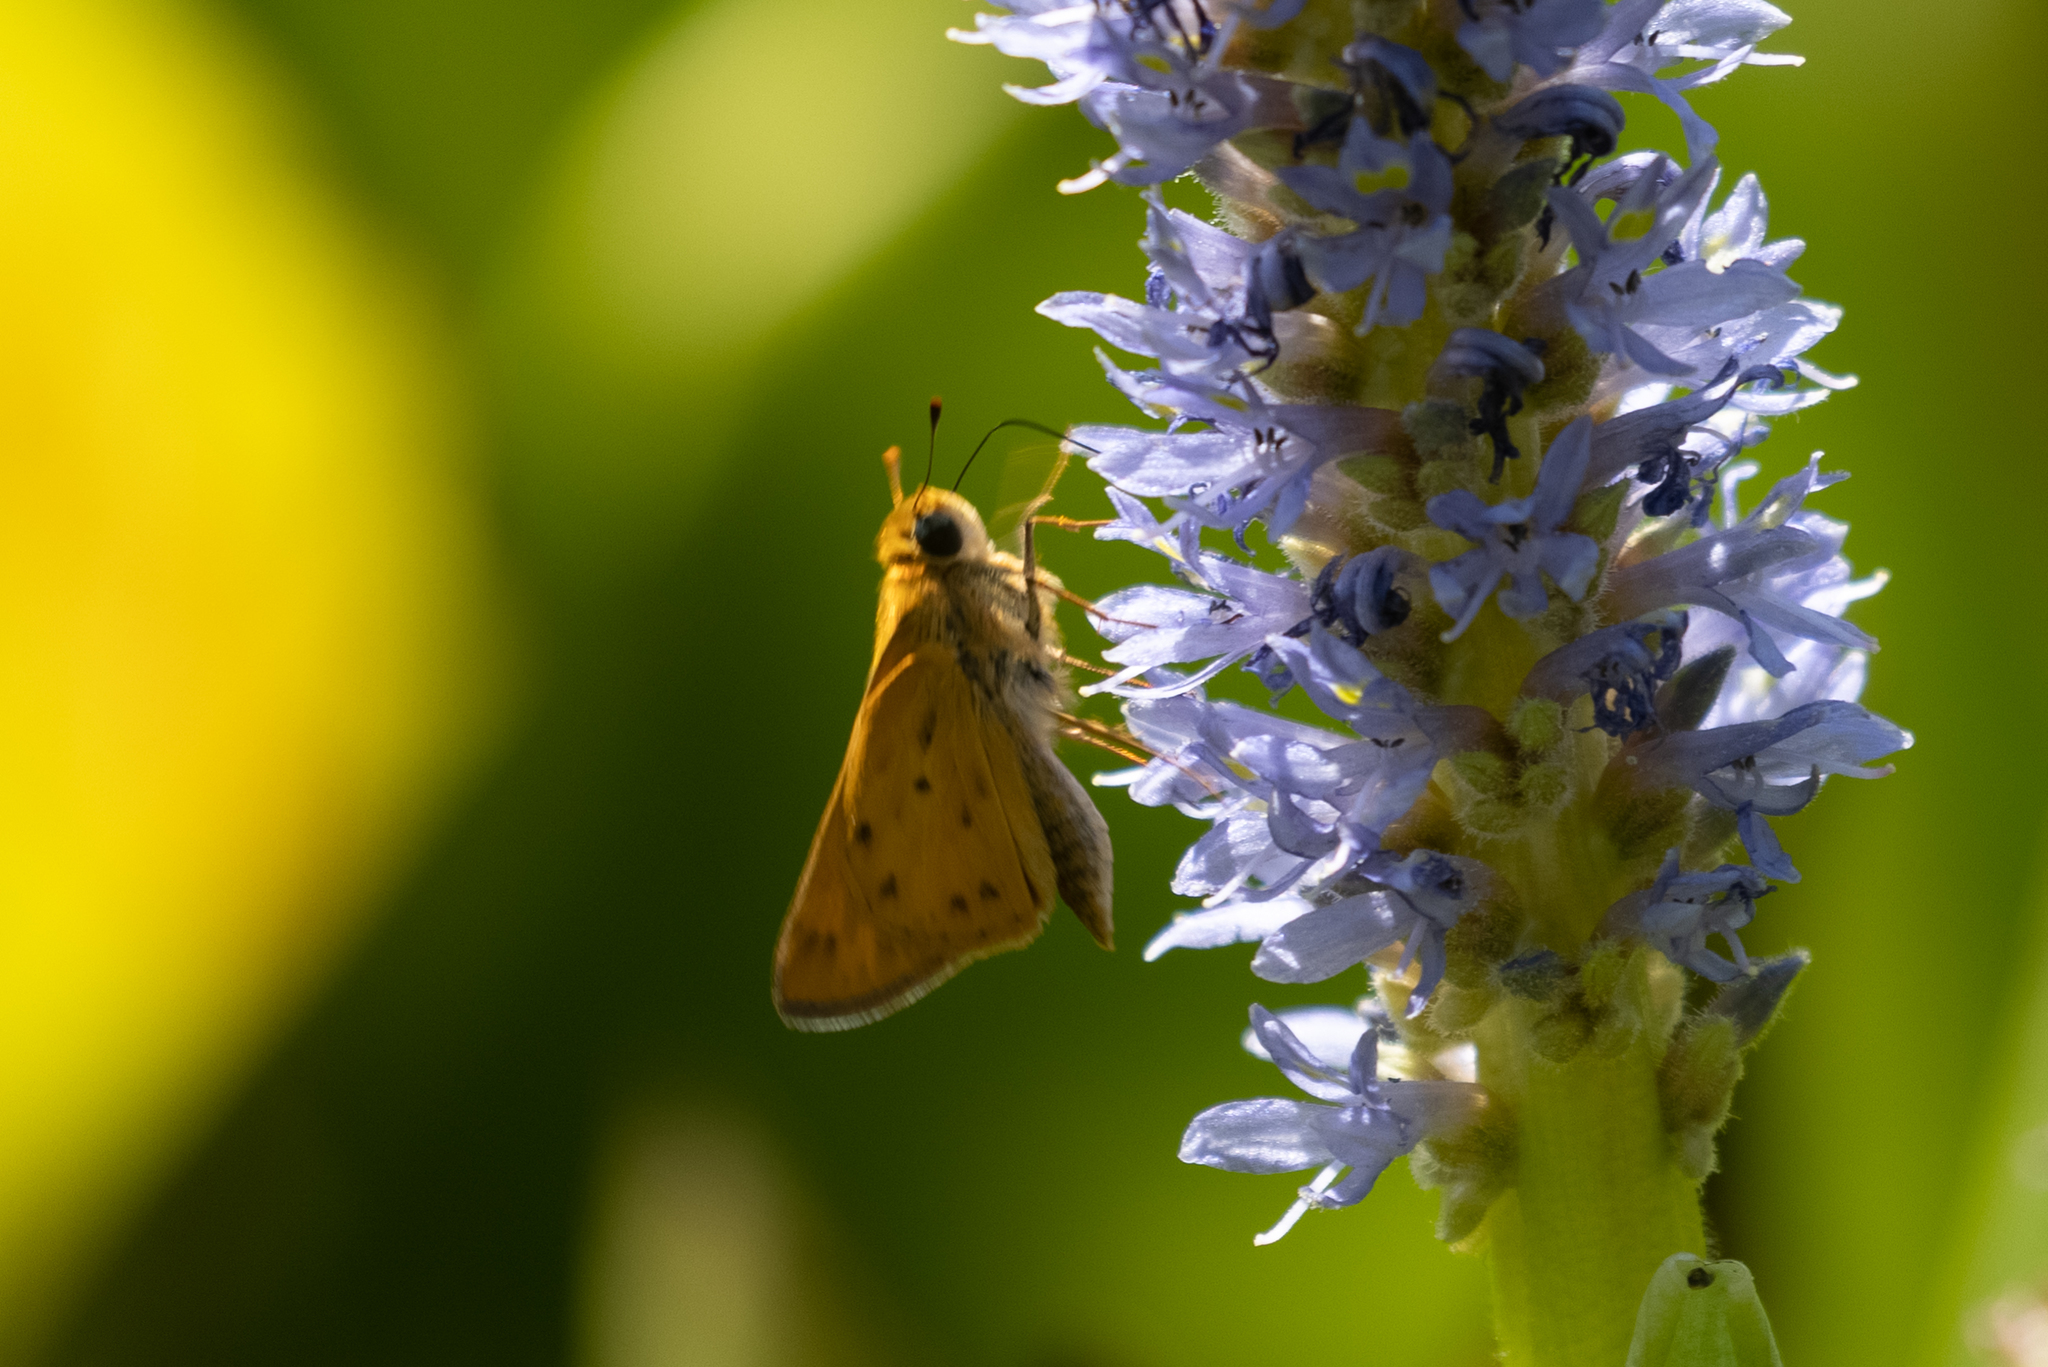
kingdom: Animalia
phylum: Arthropoda
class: Insecta
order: Lepidoptera
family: Hesperiidae
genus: Hylephila
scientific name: Hylephila phyleus
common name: Fiery skipper
